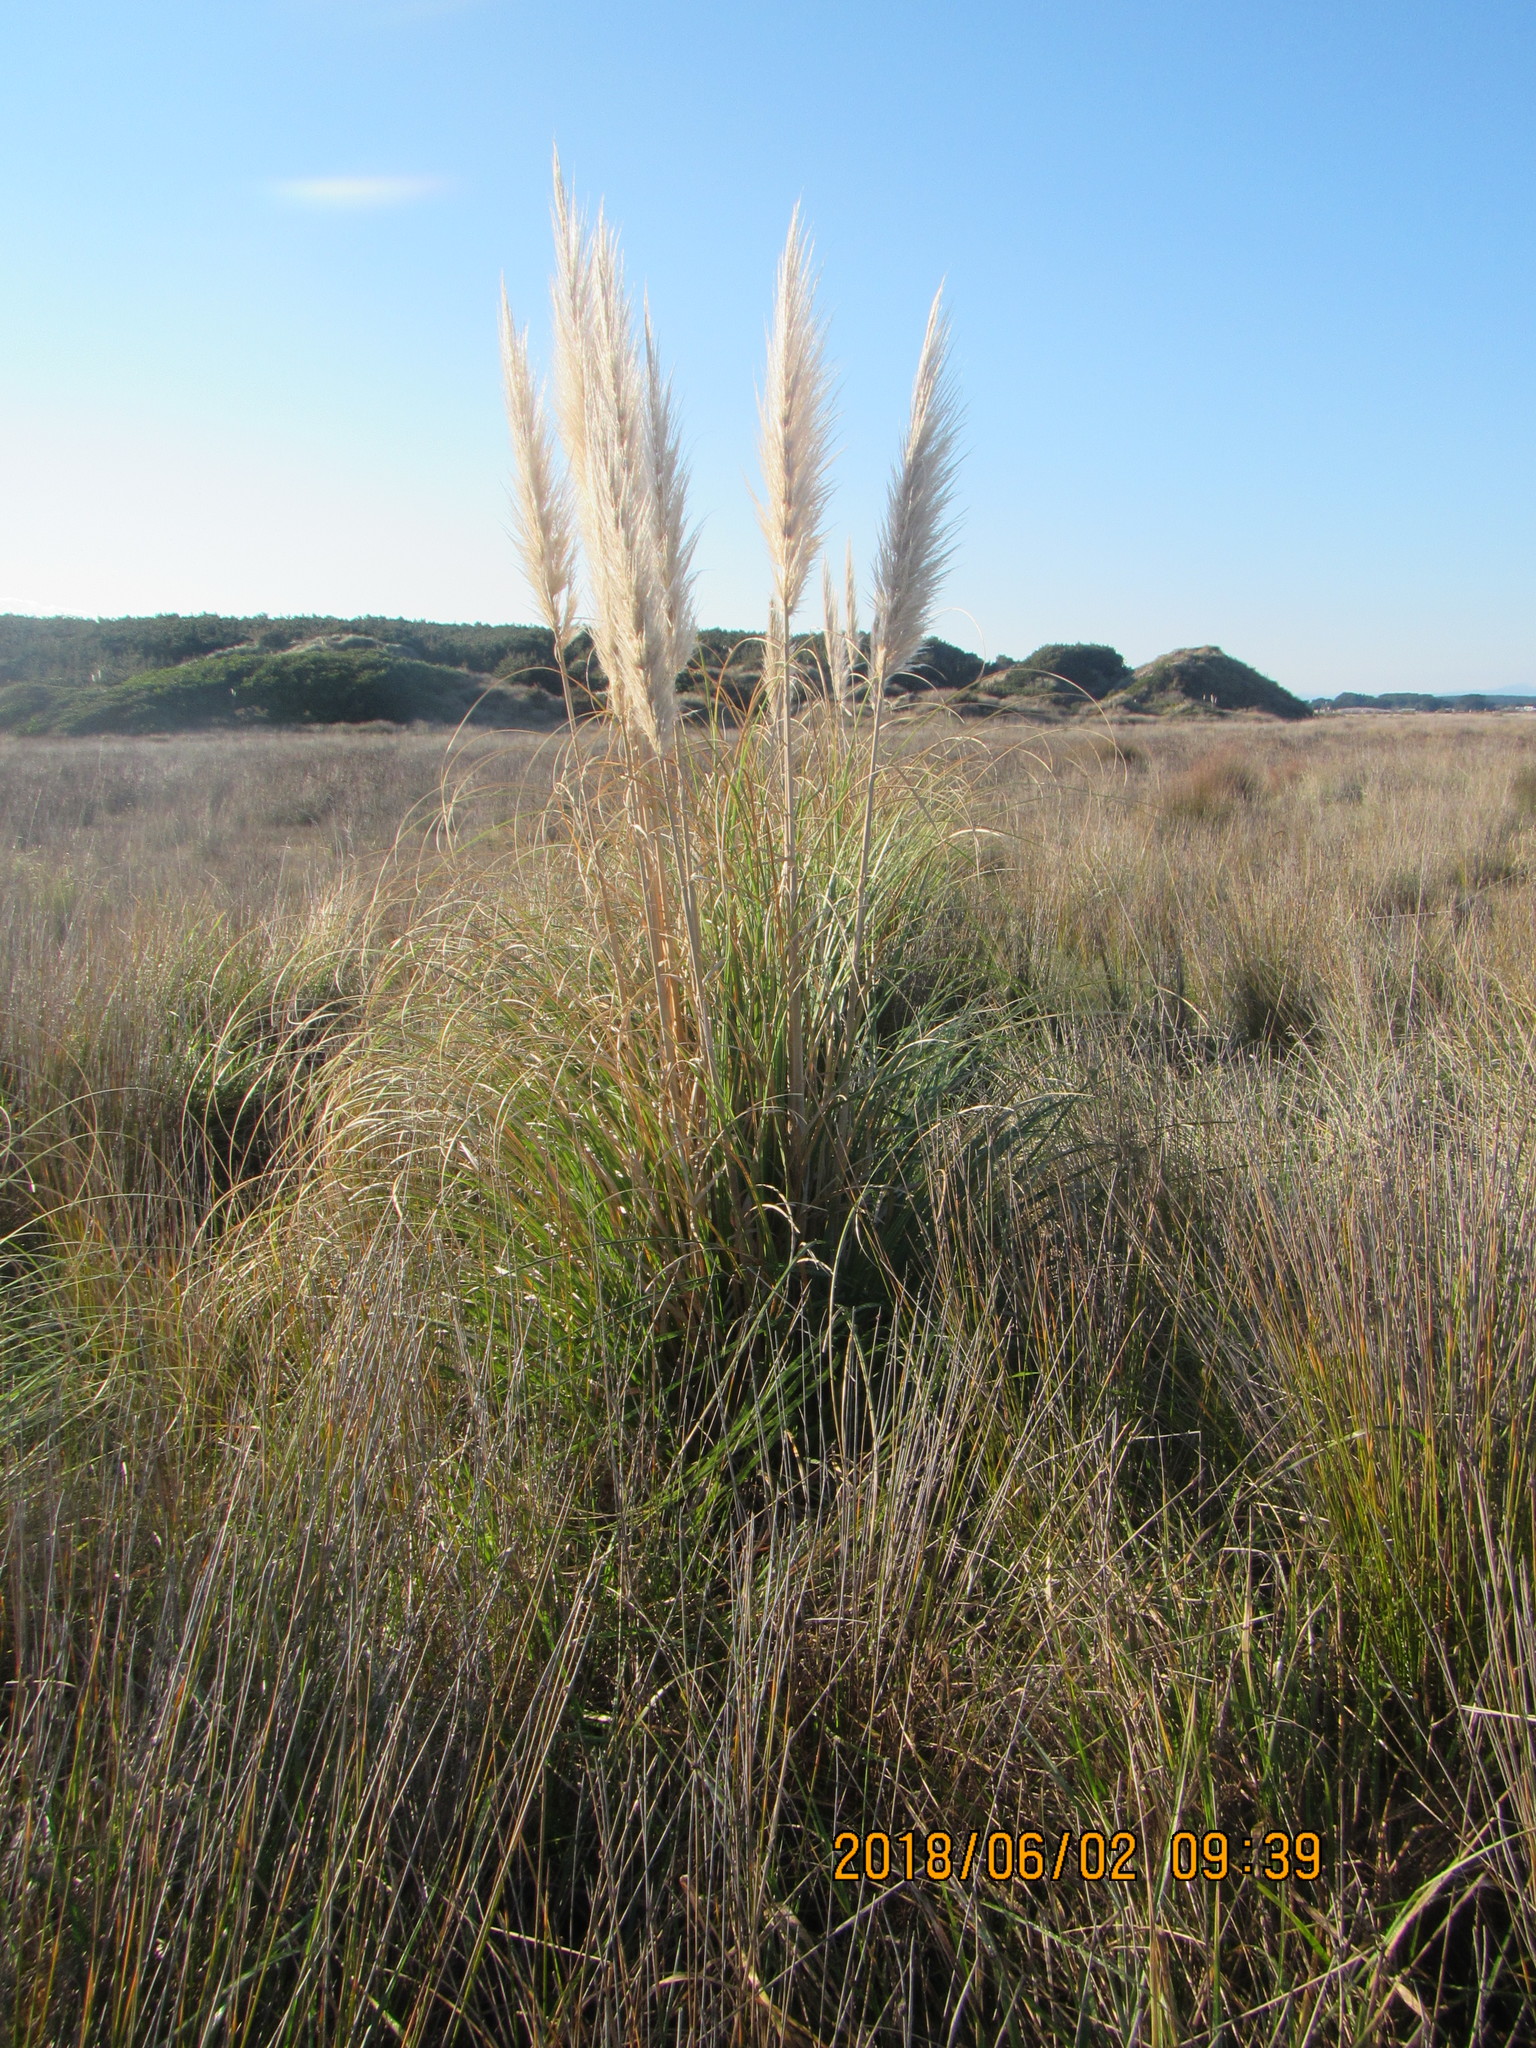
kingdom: Plantae
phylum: Tracheophyta
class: Liliopsida
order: Poales
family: Poaceae
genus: Cortaderia
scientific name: Cortaderia selloana
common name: Uruguayan pampas grass
